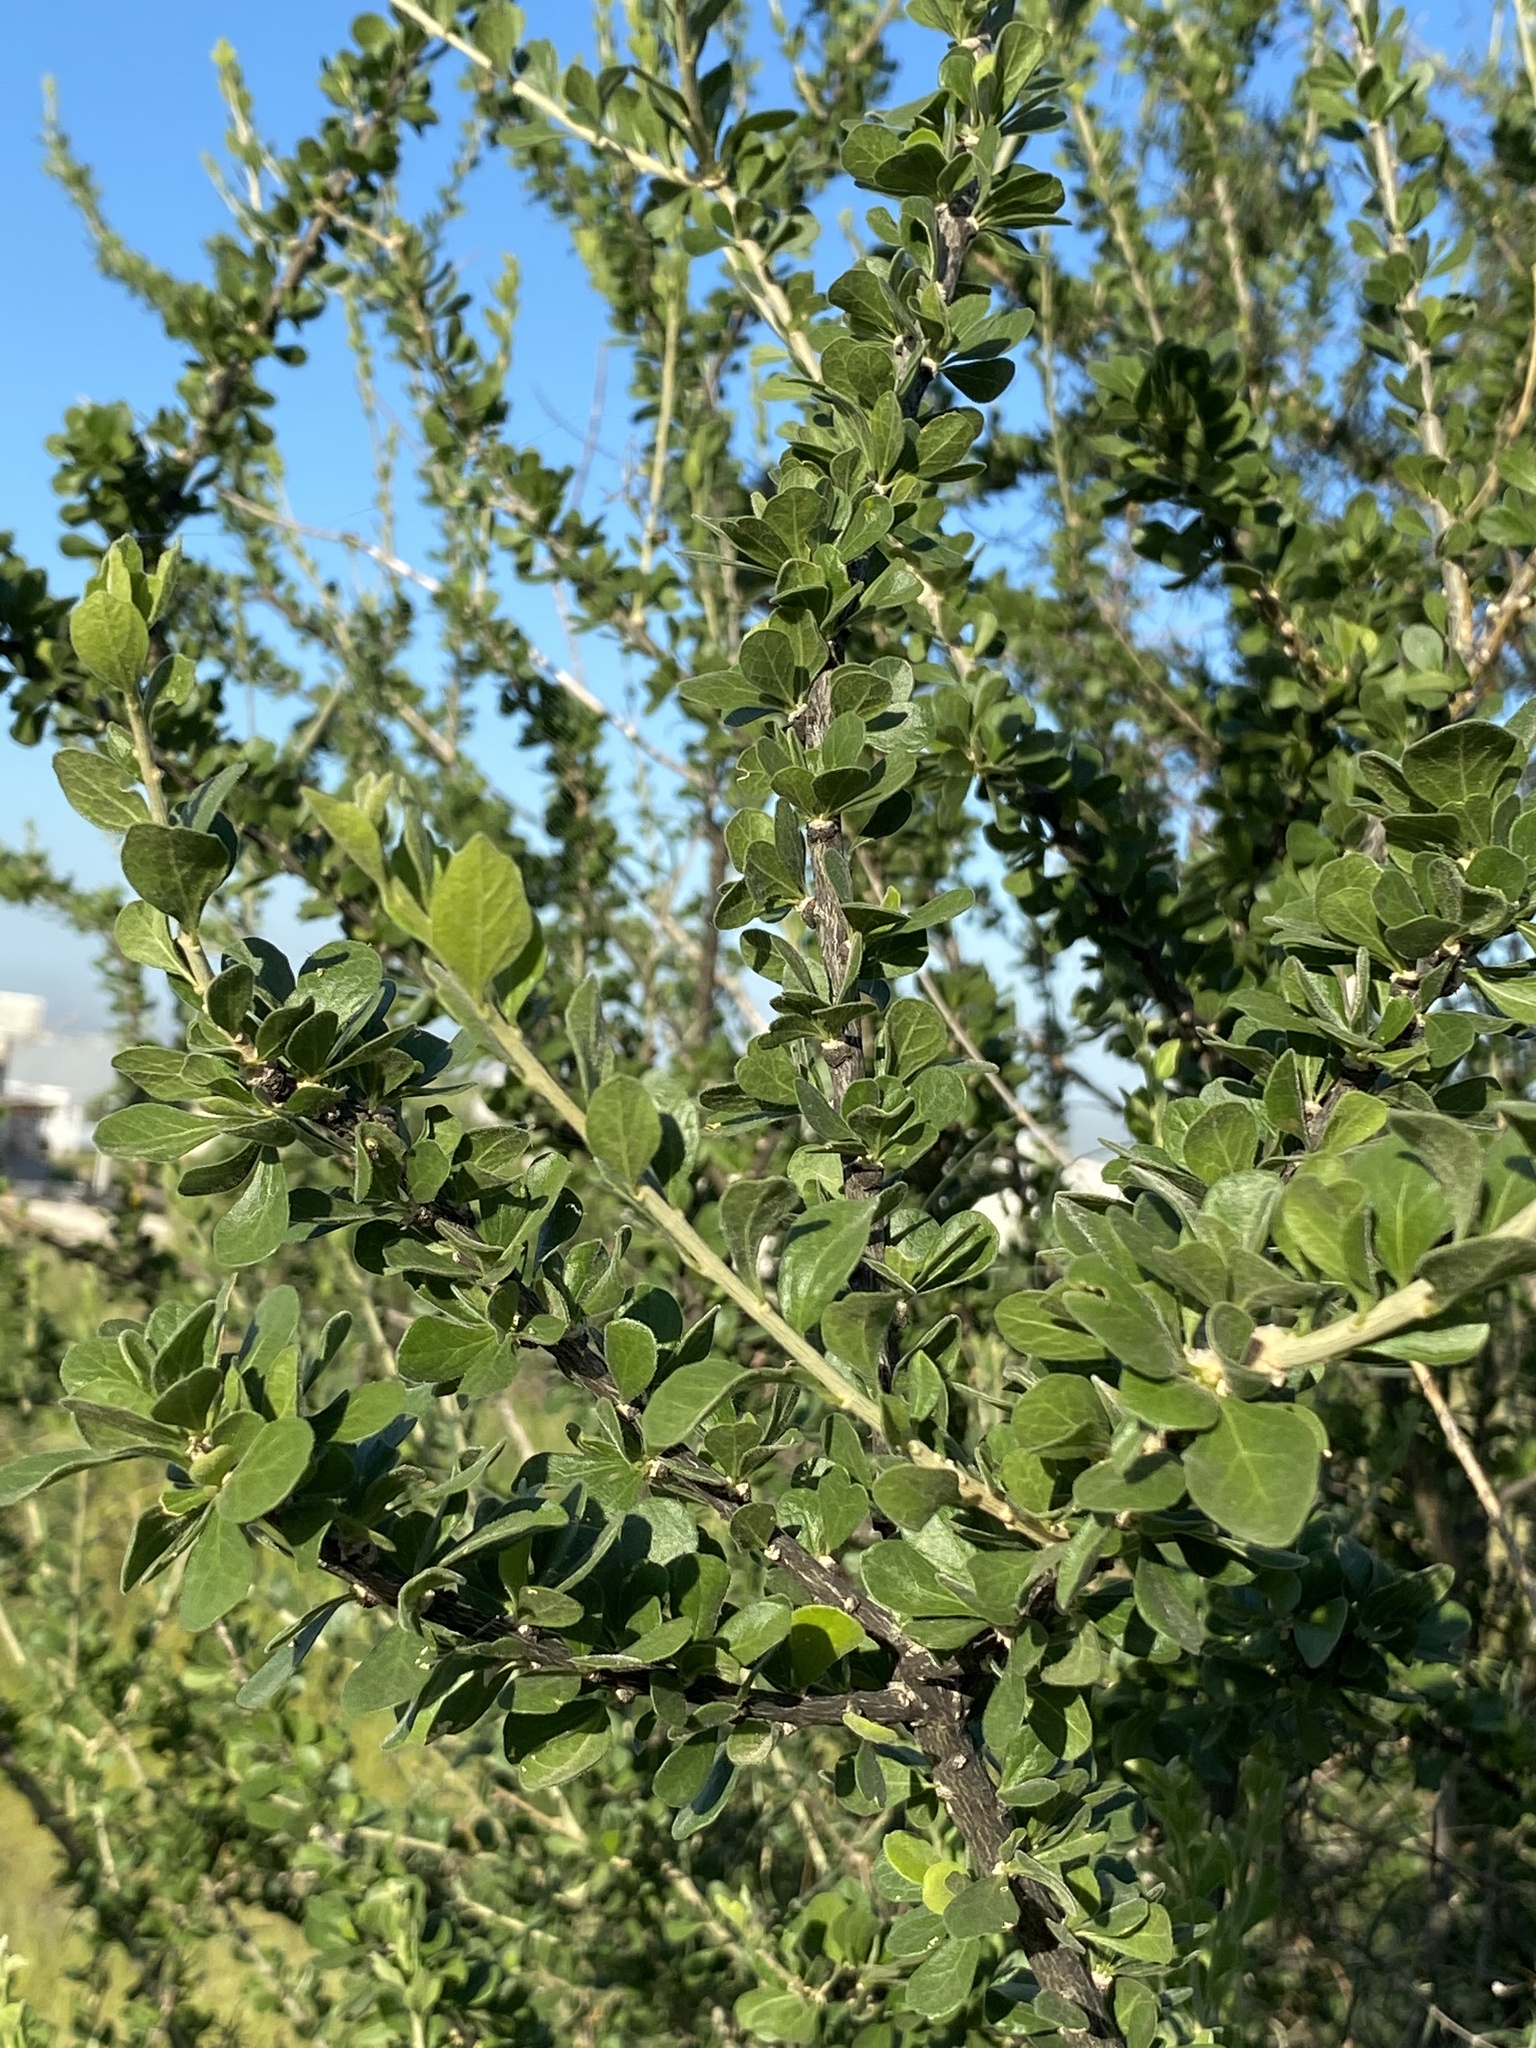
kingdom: Plantae
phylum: Tracheophyta
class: Magnoliopsida
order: Ericales
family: Fouquieriaceae
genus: Fouquieria
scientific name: Fouquieria macdougalii
